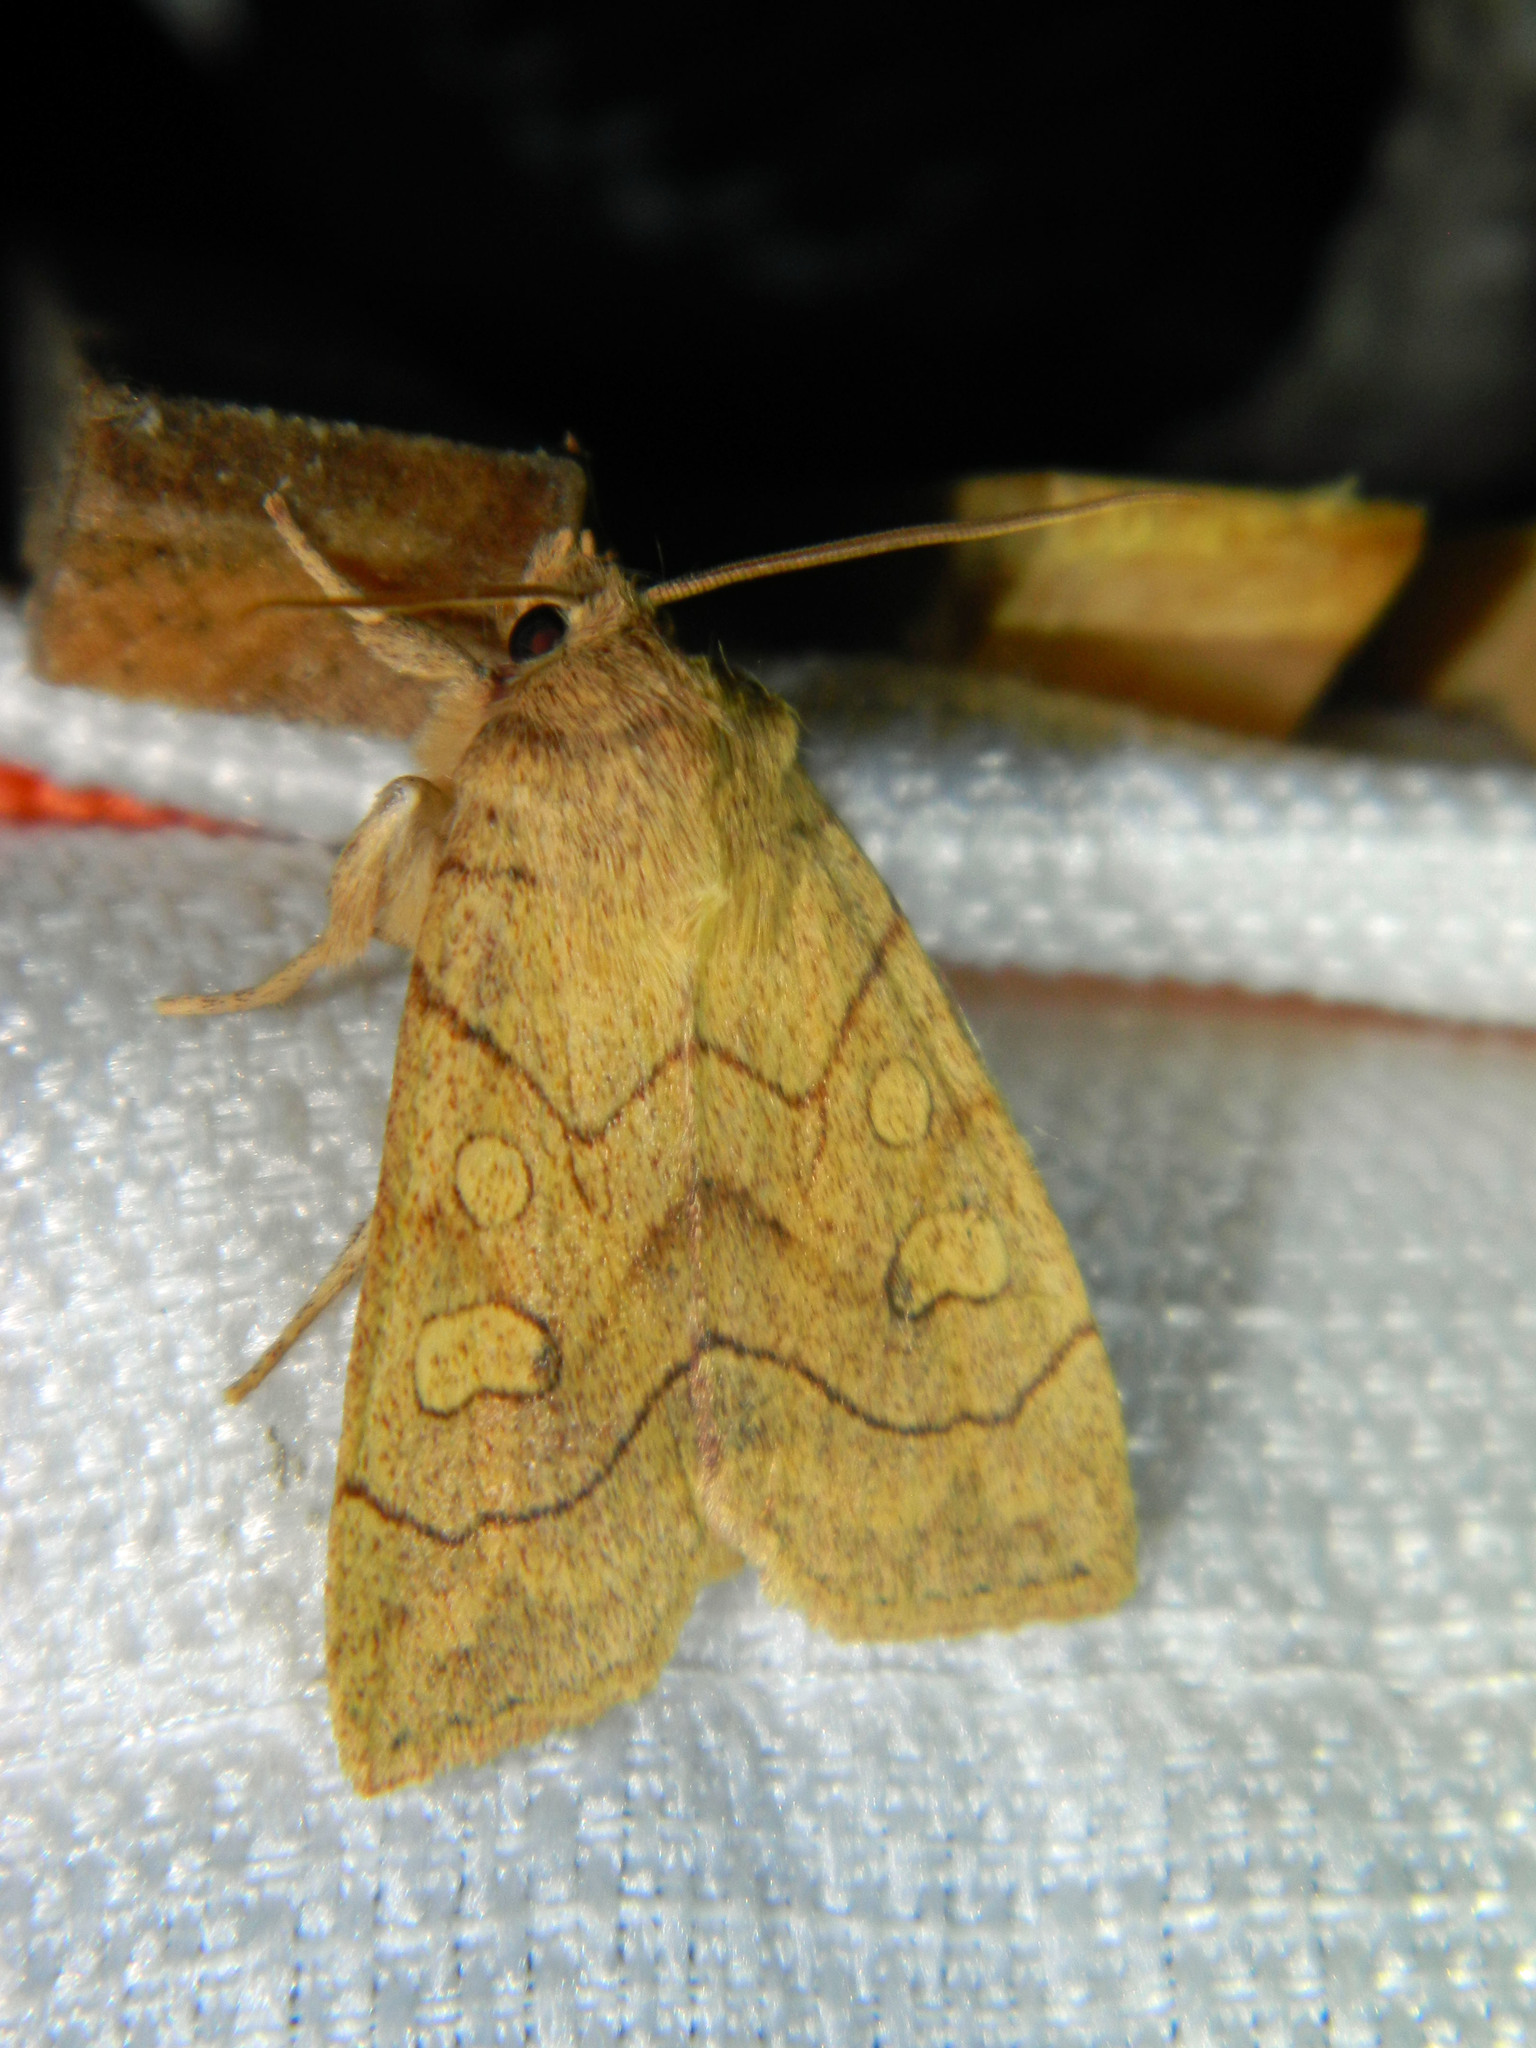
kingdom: Animalia
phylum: Arthropoda
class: Insecta
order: Lepidoptera
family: Noctuidae
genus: Enargia
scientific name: Enargia decolor
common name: Aspen twoleaf tier moth
